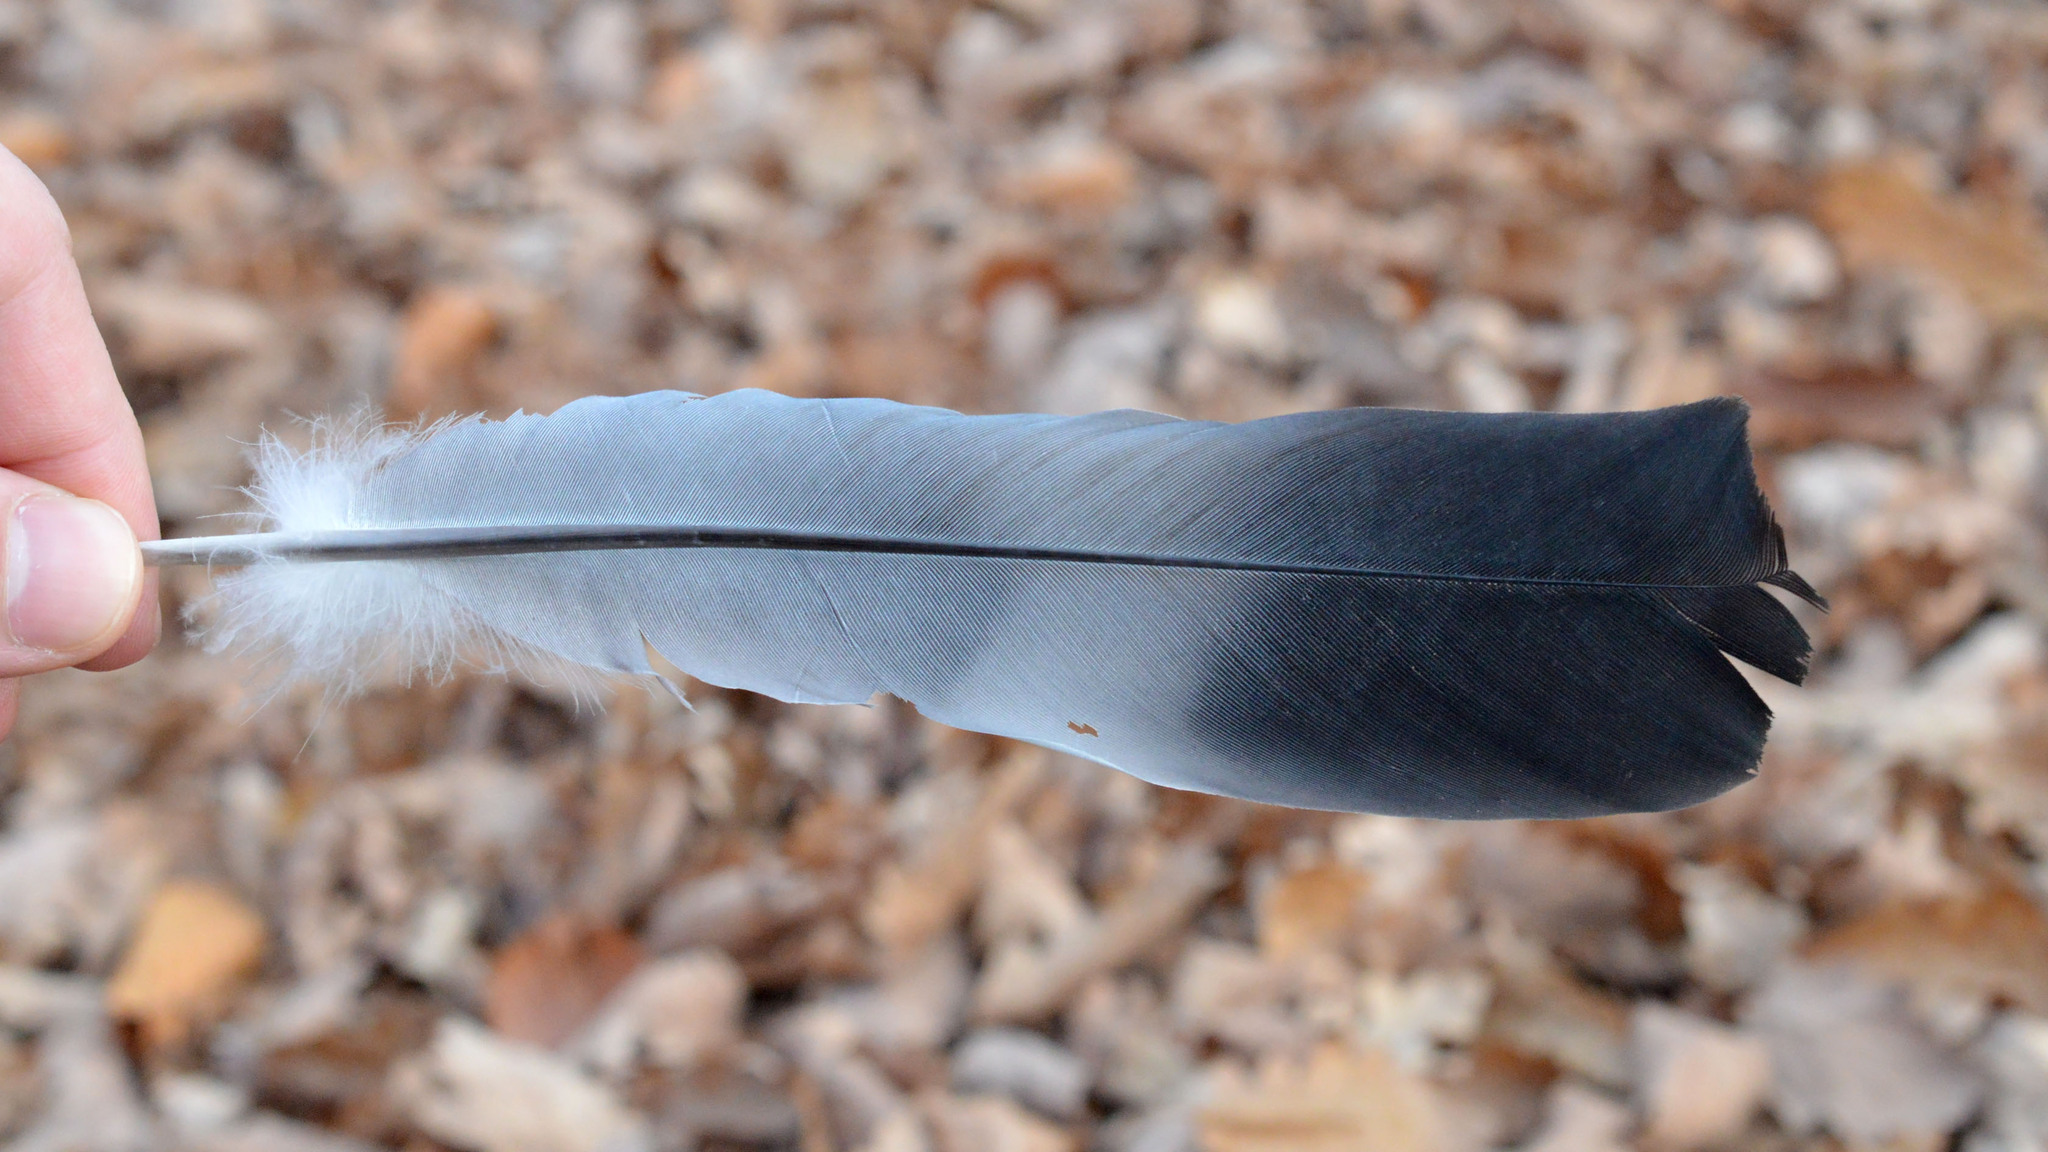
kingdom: Animalia
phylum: Chordata
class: Aves
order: Columbiformes
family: Columbidae
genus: Columba
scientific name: Columba palumbus
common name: Common wood pigeon
